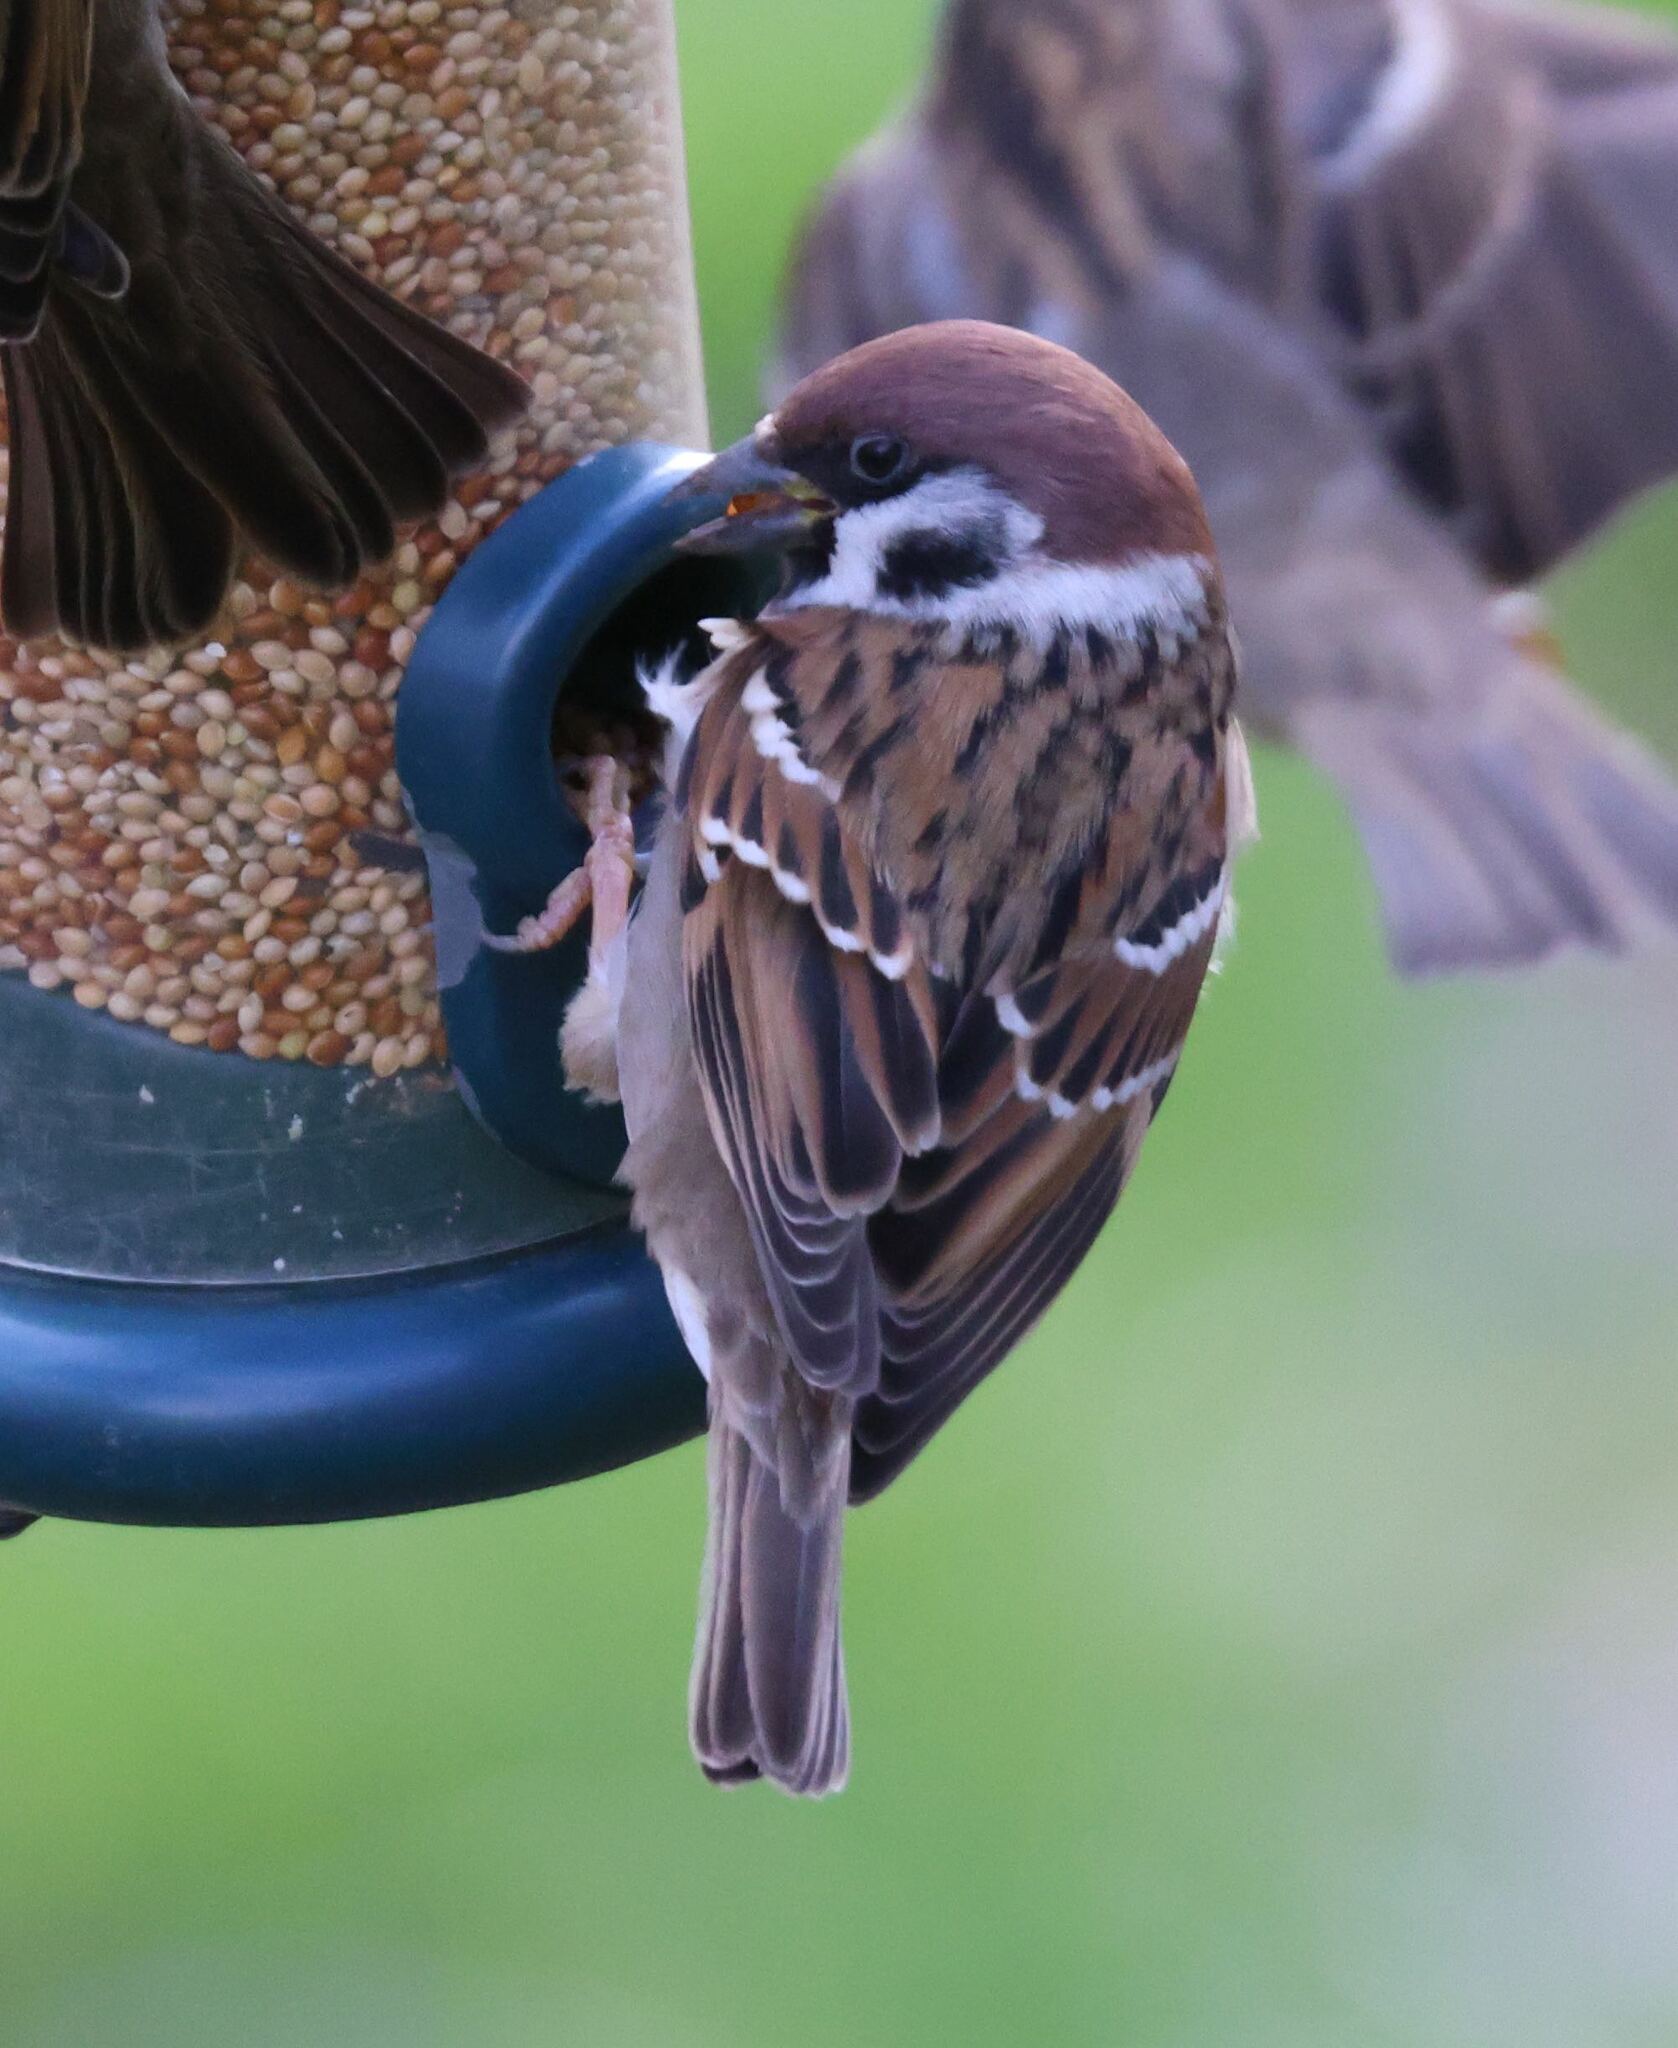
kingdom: Animalia
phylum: Chordata
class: Aves
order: Passeriformes
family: Passeridae
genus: Passer
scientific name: Passer montanus
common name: Eurasian tree sparrow
